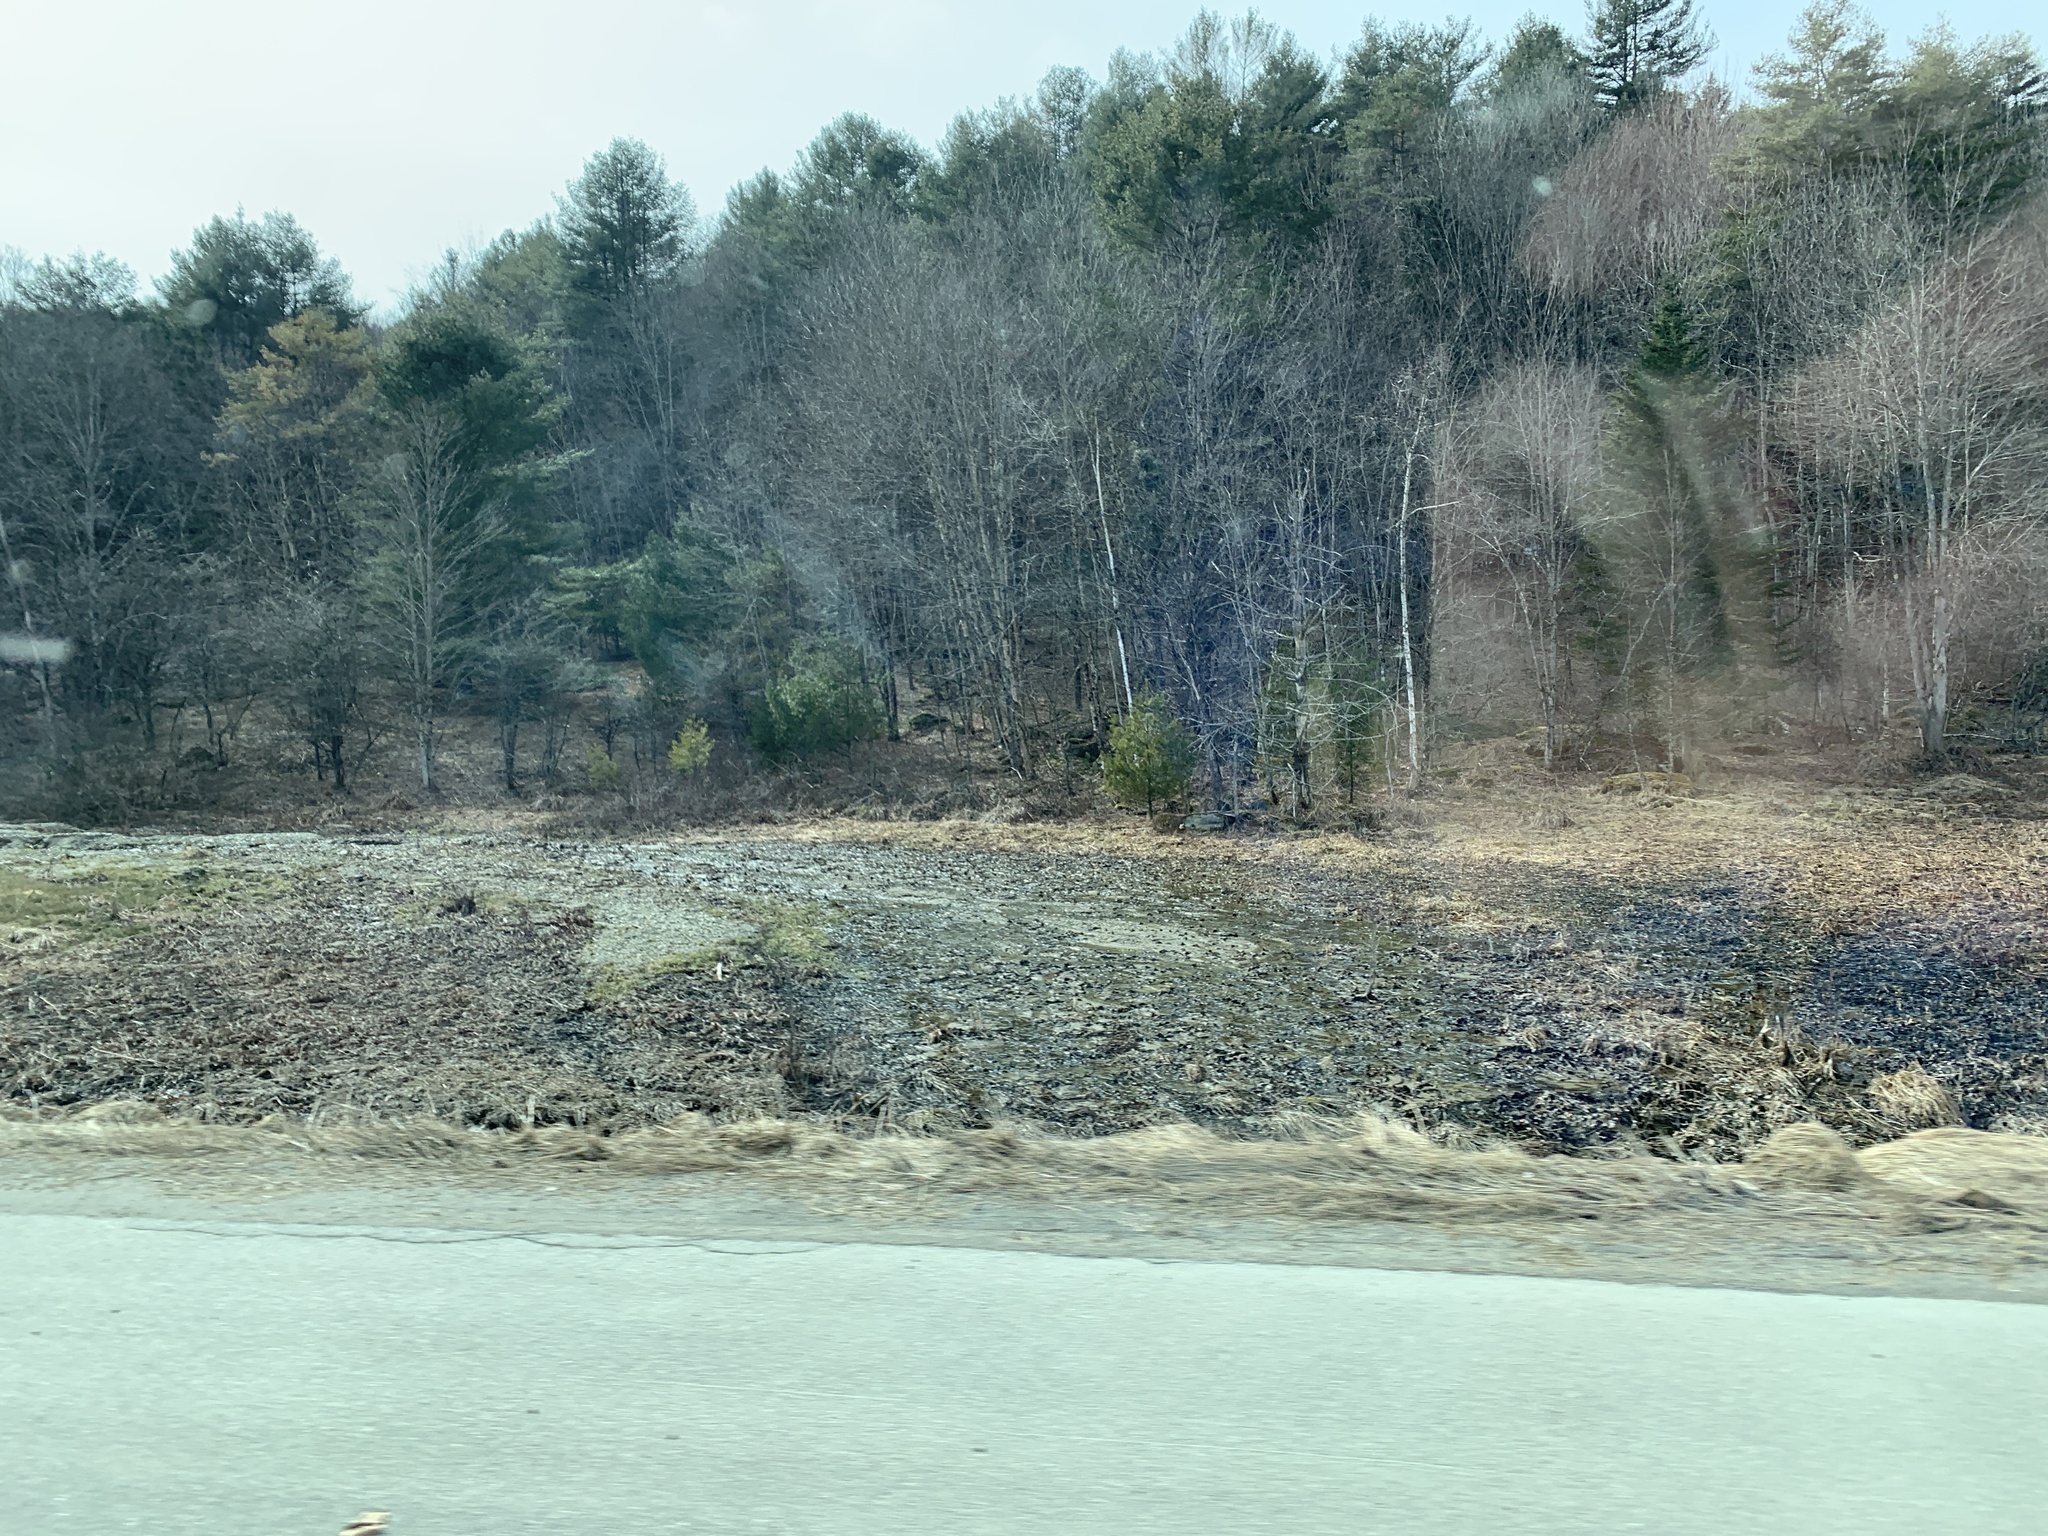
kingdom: Plantae
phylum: Tracheophyta
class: Pinopsida
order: Pinales
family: Pinaceae
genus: Pinus
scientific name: Pinus strobus
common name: Weymouth pine
